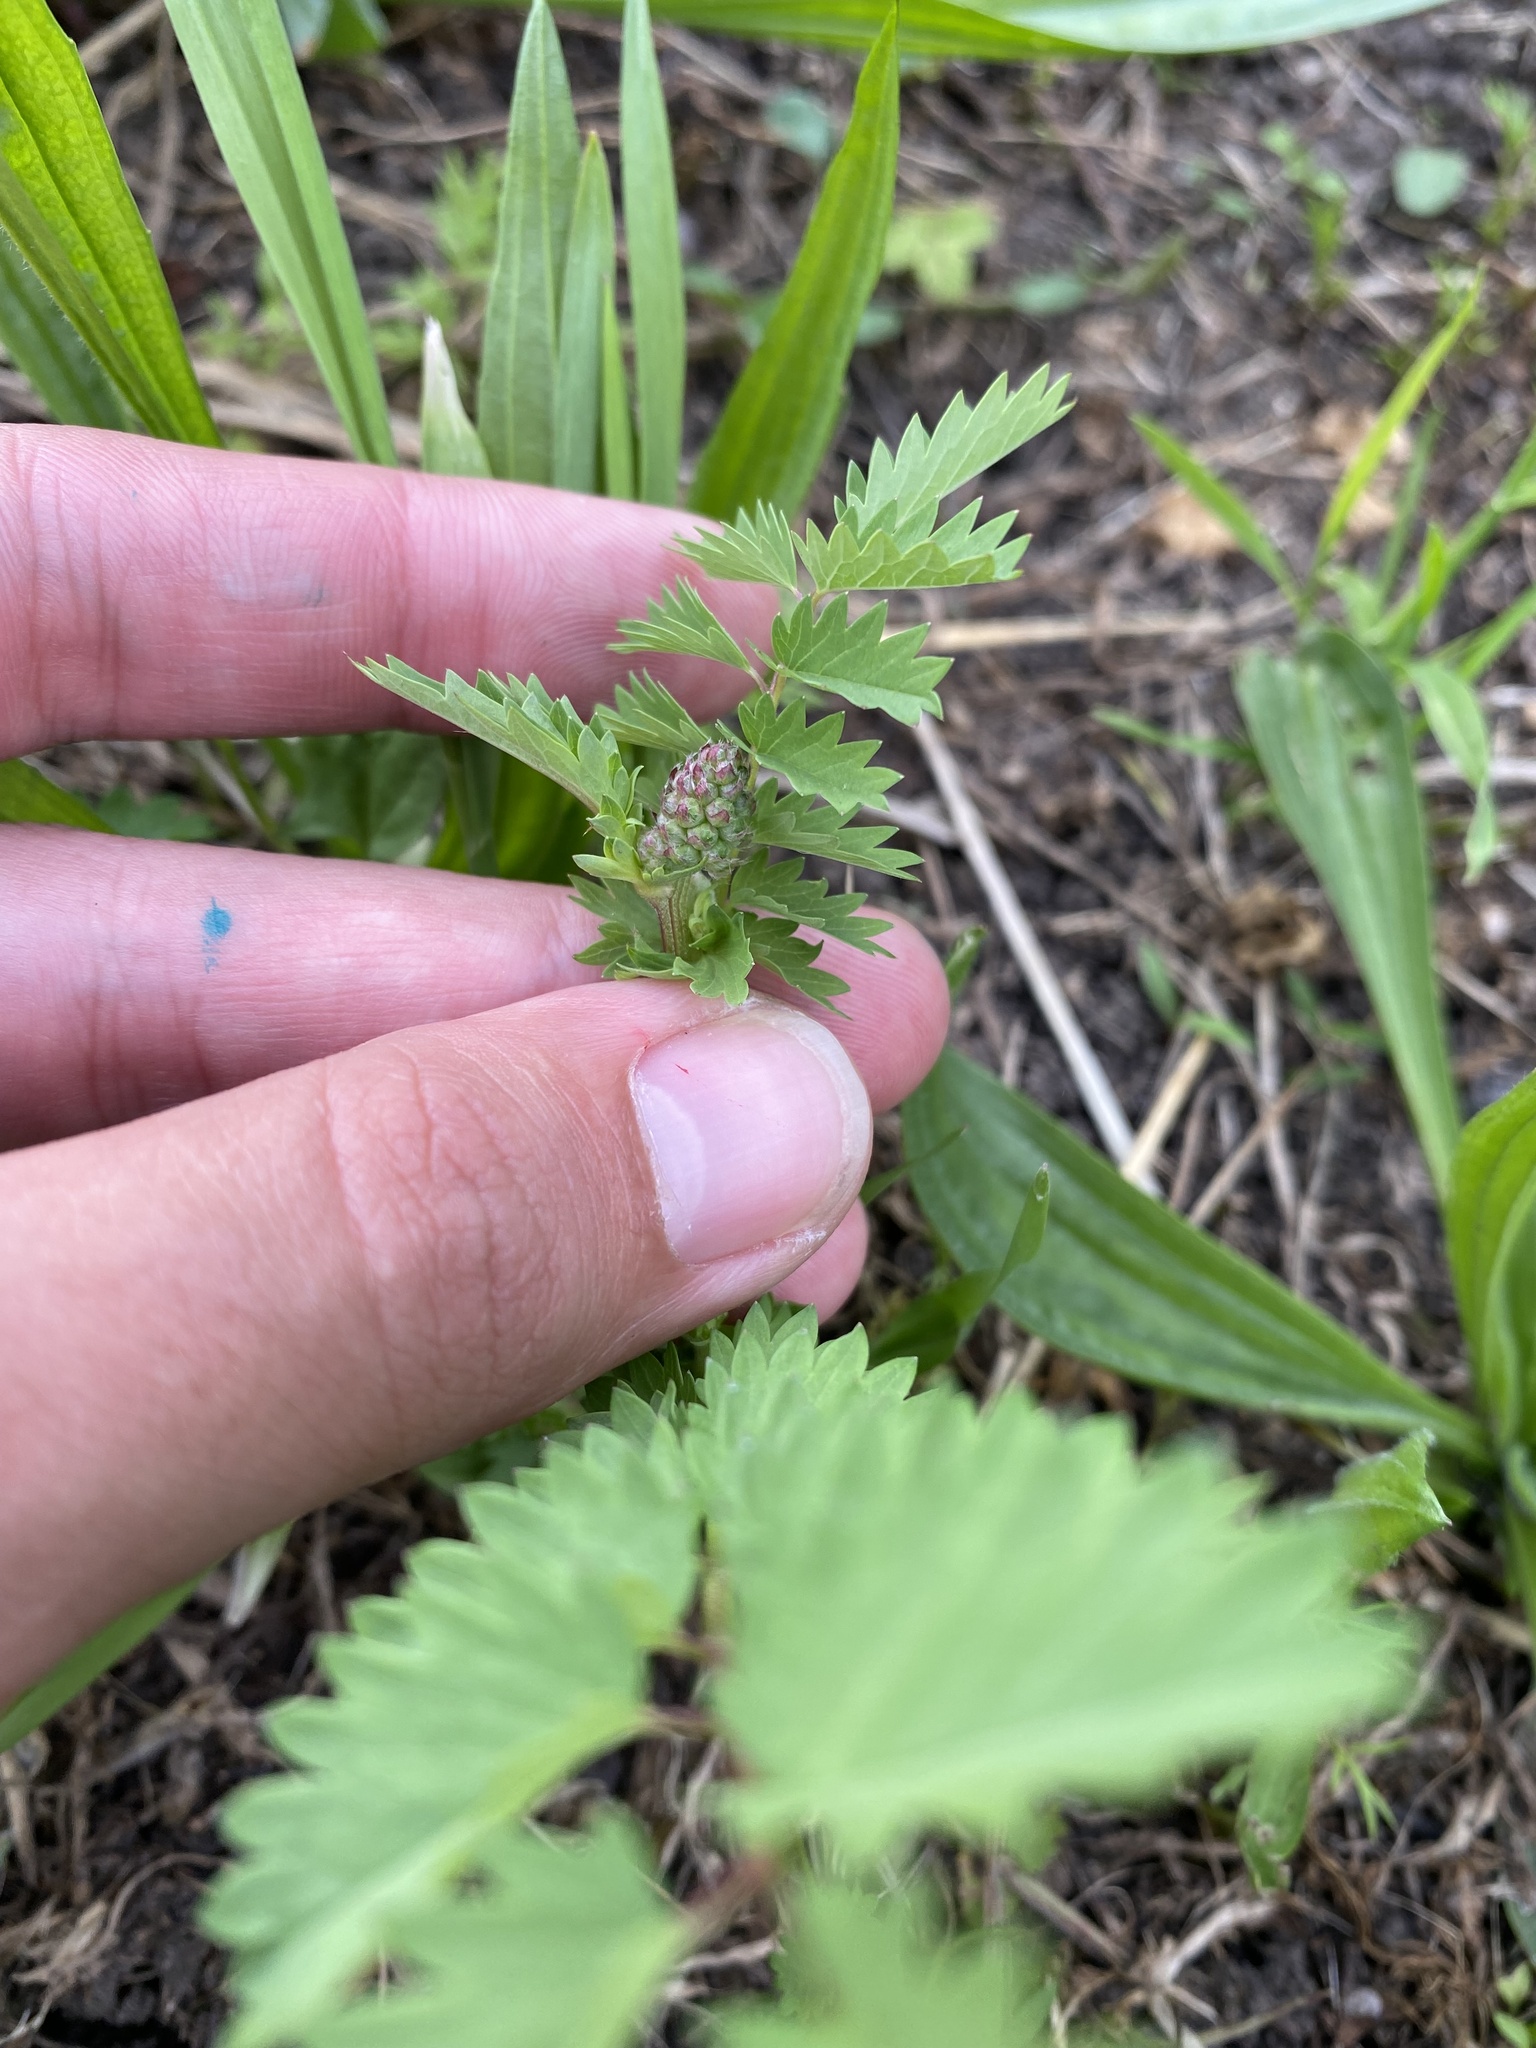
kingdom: Plantae
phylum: Tracheophyta
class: Magnoliopsida
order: Rosales
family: Rosaceae
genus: Poterium
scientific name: Poterium sanguisorba
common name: Salad burnet
